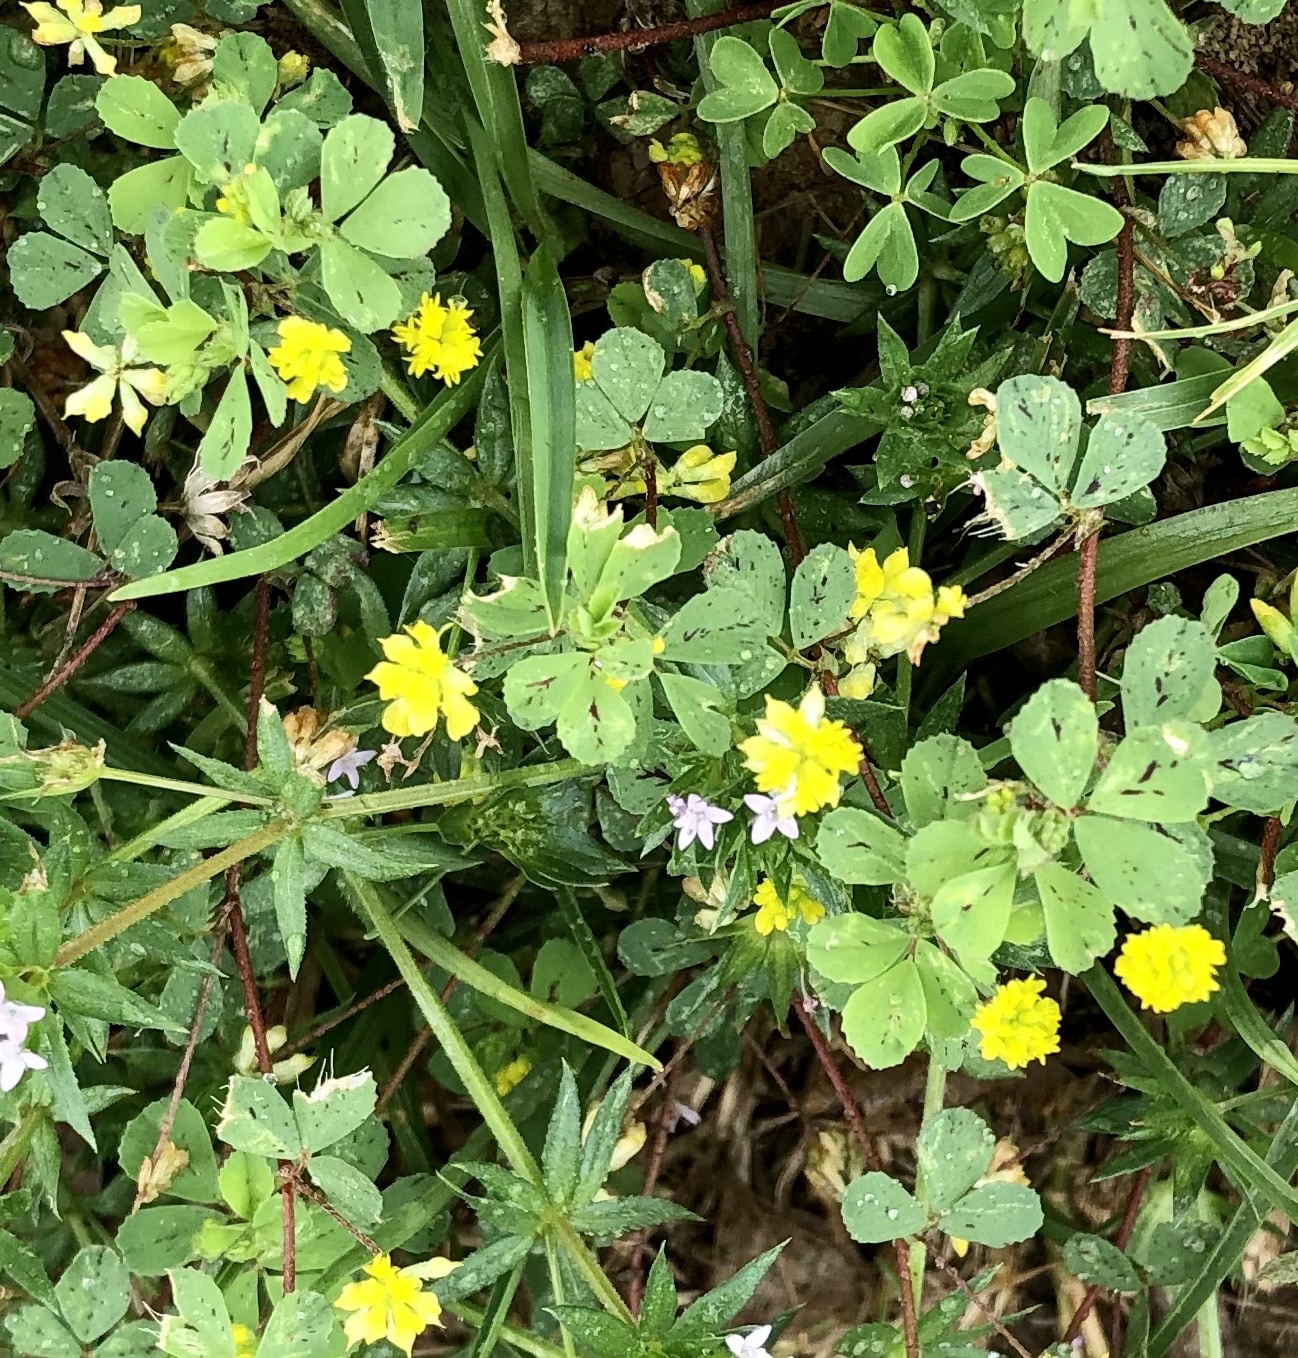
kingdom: Plantae
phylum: Tracheophyta
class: Magnoliopsida
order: Fabales
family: Fabaceae
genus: Medicago
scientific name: Medicago lupulina
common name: Black medick
